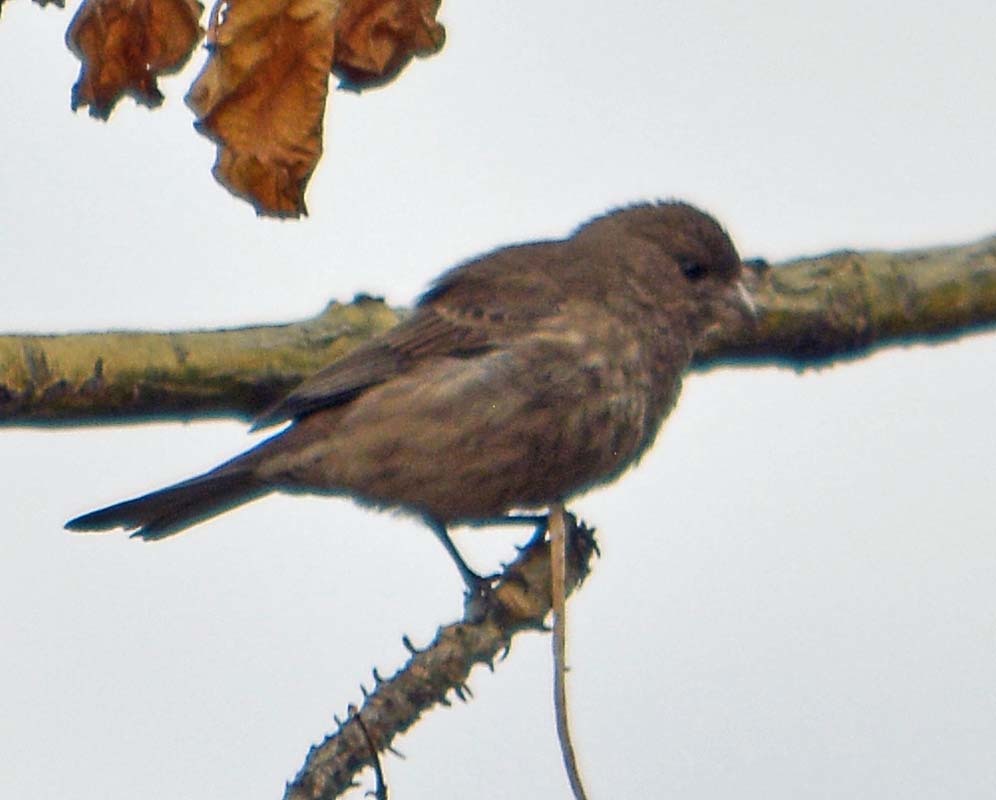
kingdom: Animalia
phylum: Chordata
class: Aves
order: Passeriformes
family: Fringillidae
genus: Haemorhous
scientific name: Haemorhous mexicanus
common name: House finch
